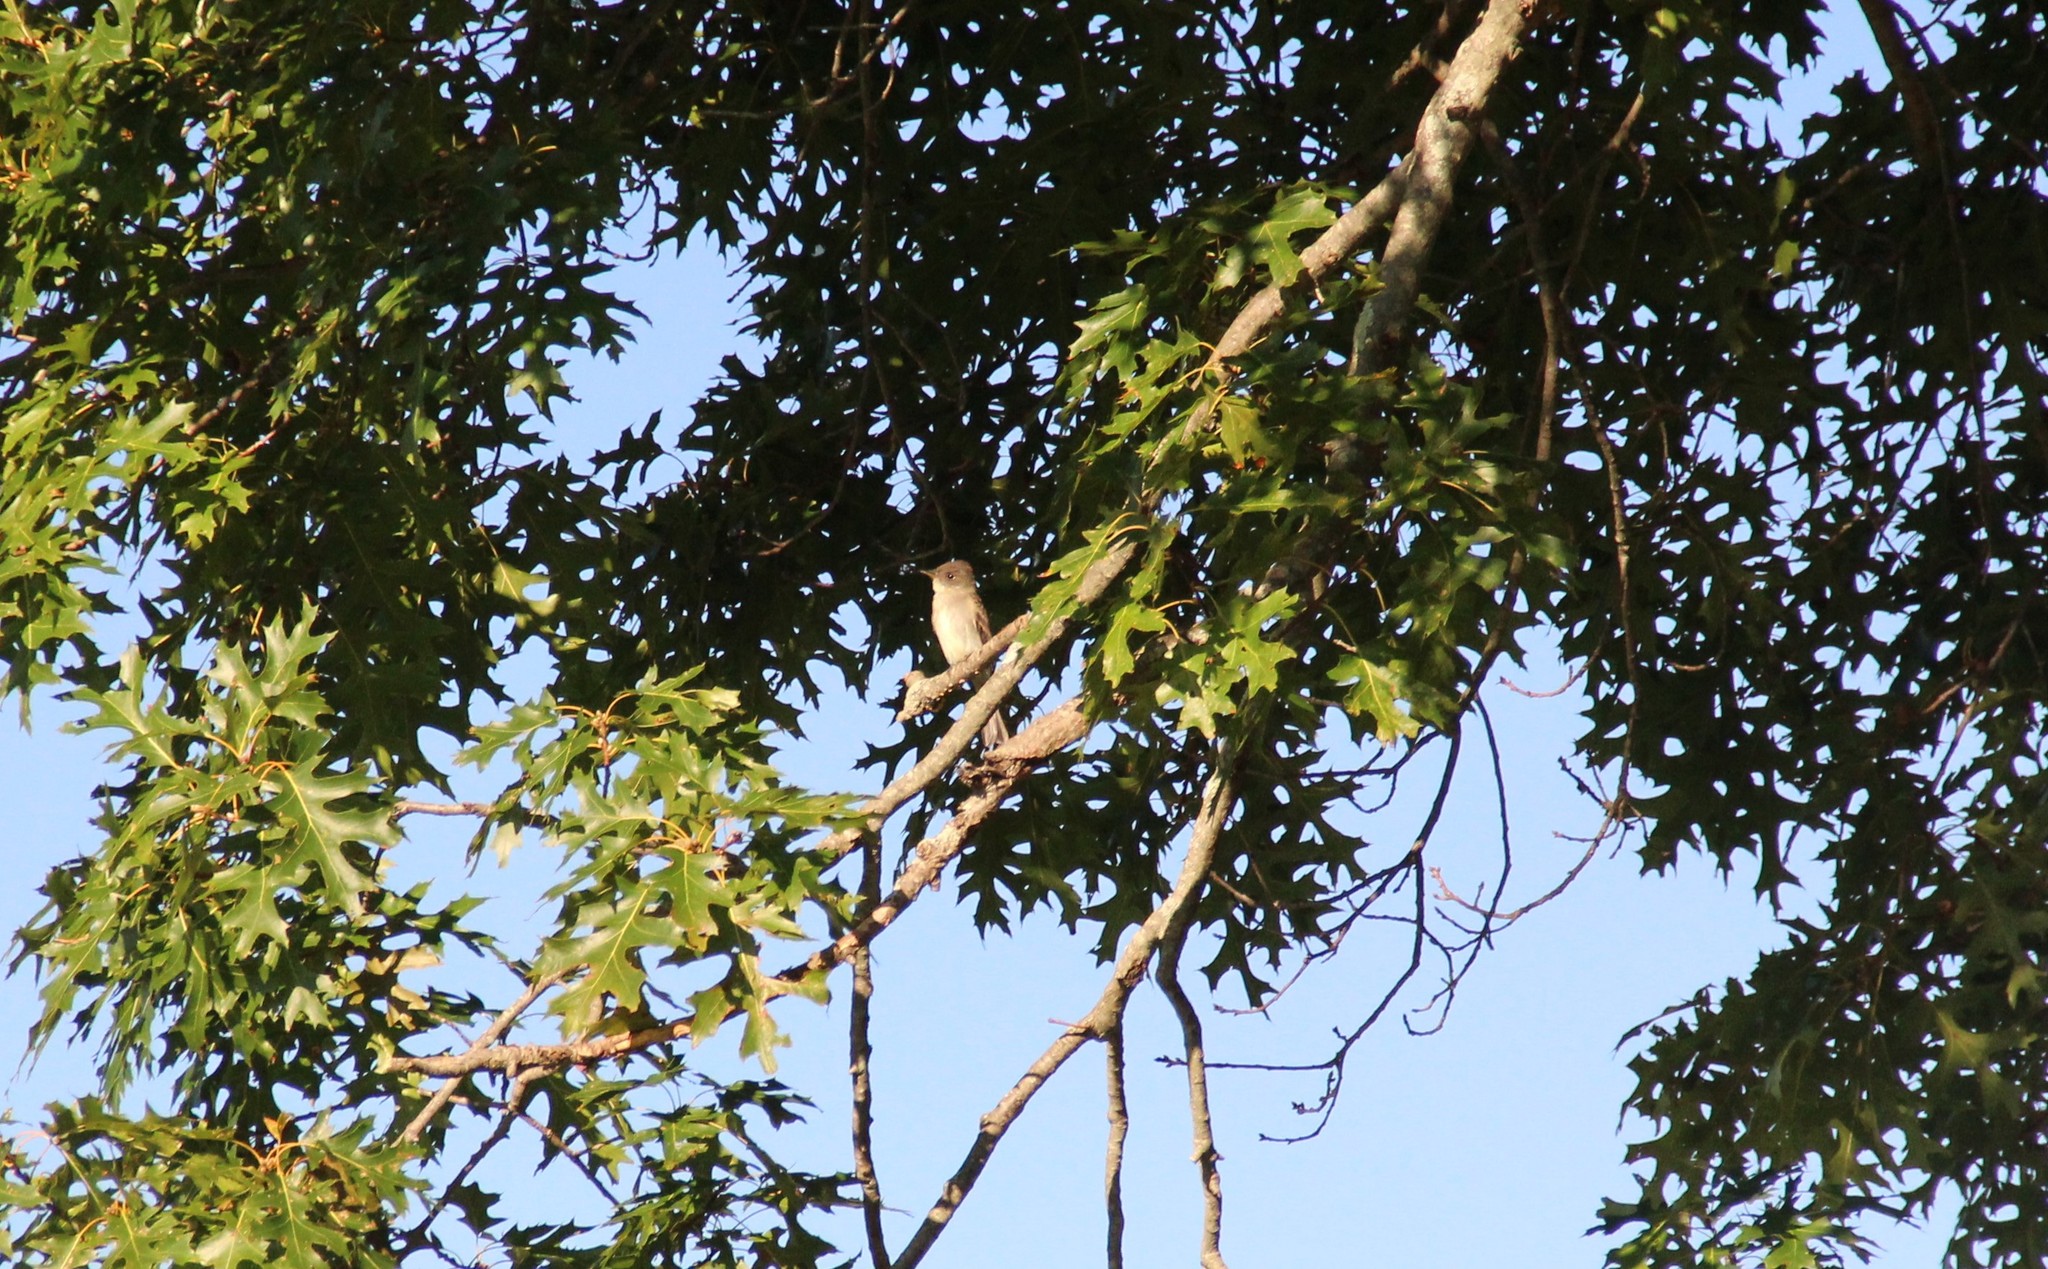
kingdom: Animalia
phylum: Chordata
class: Aves
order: Passeriformes
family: Tyrannidae
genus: Sayornis
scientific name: Sayornis phoebe
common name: Eastern phoebe
